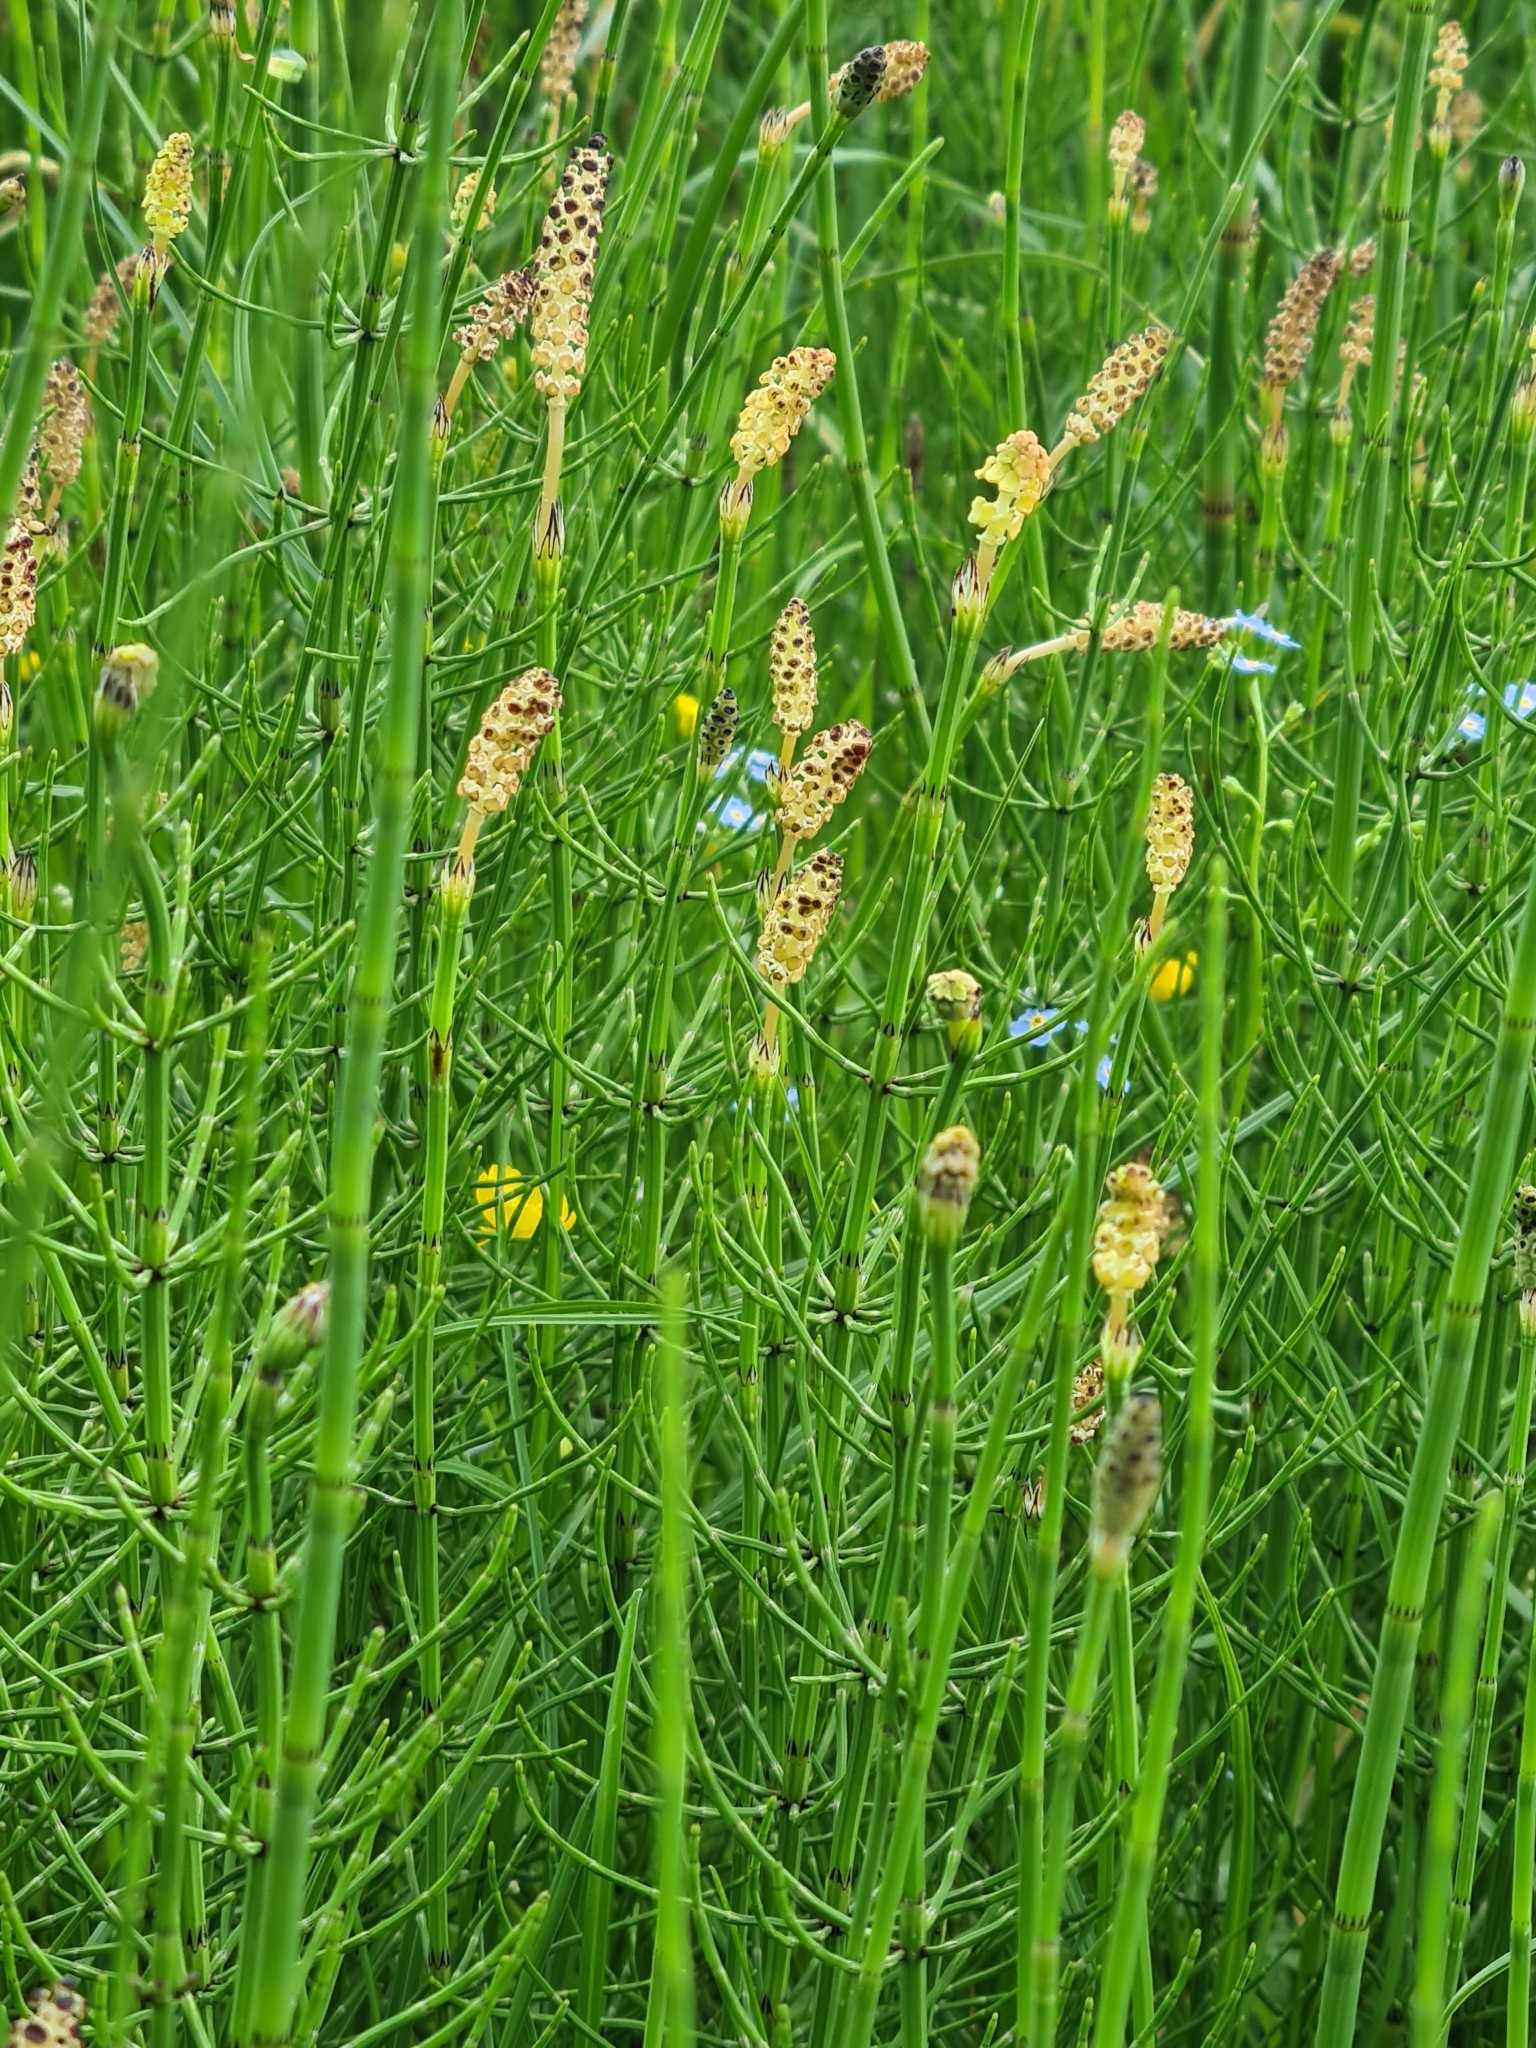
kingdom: Plantae
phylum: Tracheophyta
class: Polypodiopsida
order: Equisetales
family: Equisetaceae
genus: Equisetum
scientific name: Equisetum palustre
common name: Marsh horsetail
